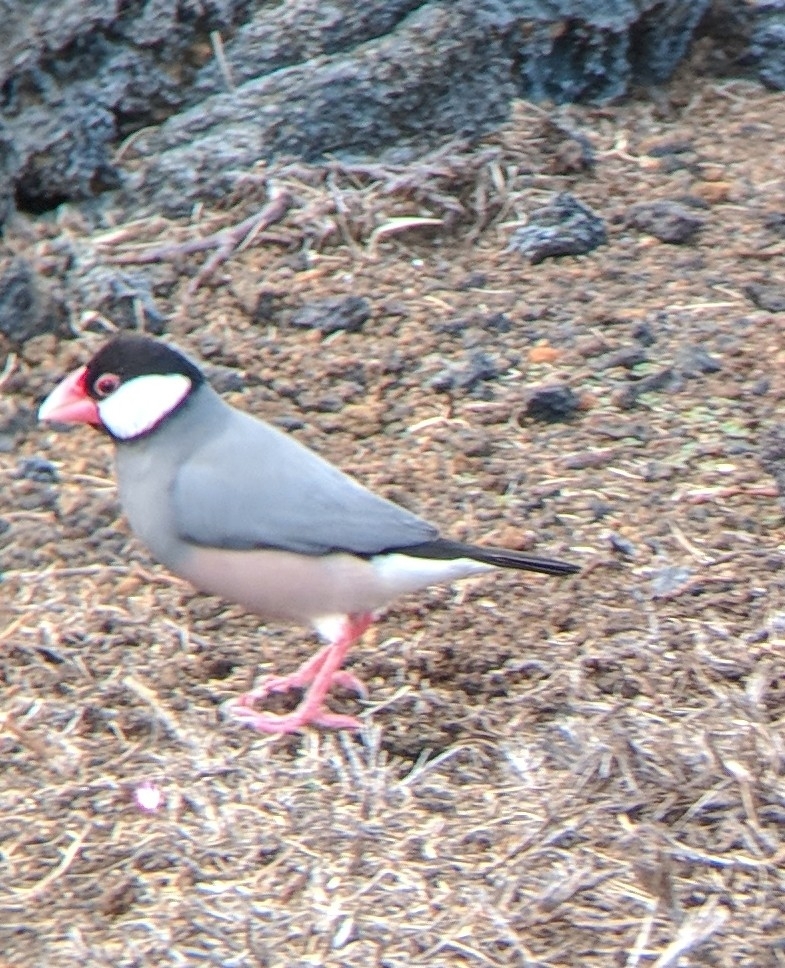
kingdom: Animalia
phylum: Chordata
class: Aves
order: Passeriformes
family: Estrildidae
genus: Lonchura
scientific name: Lonchura oryzivora
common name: Java sparrow
